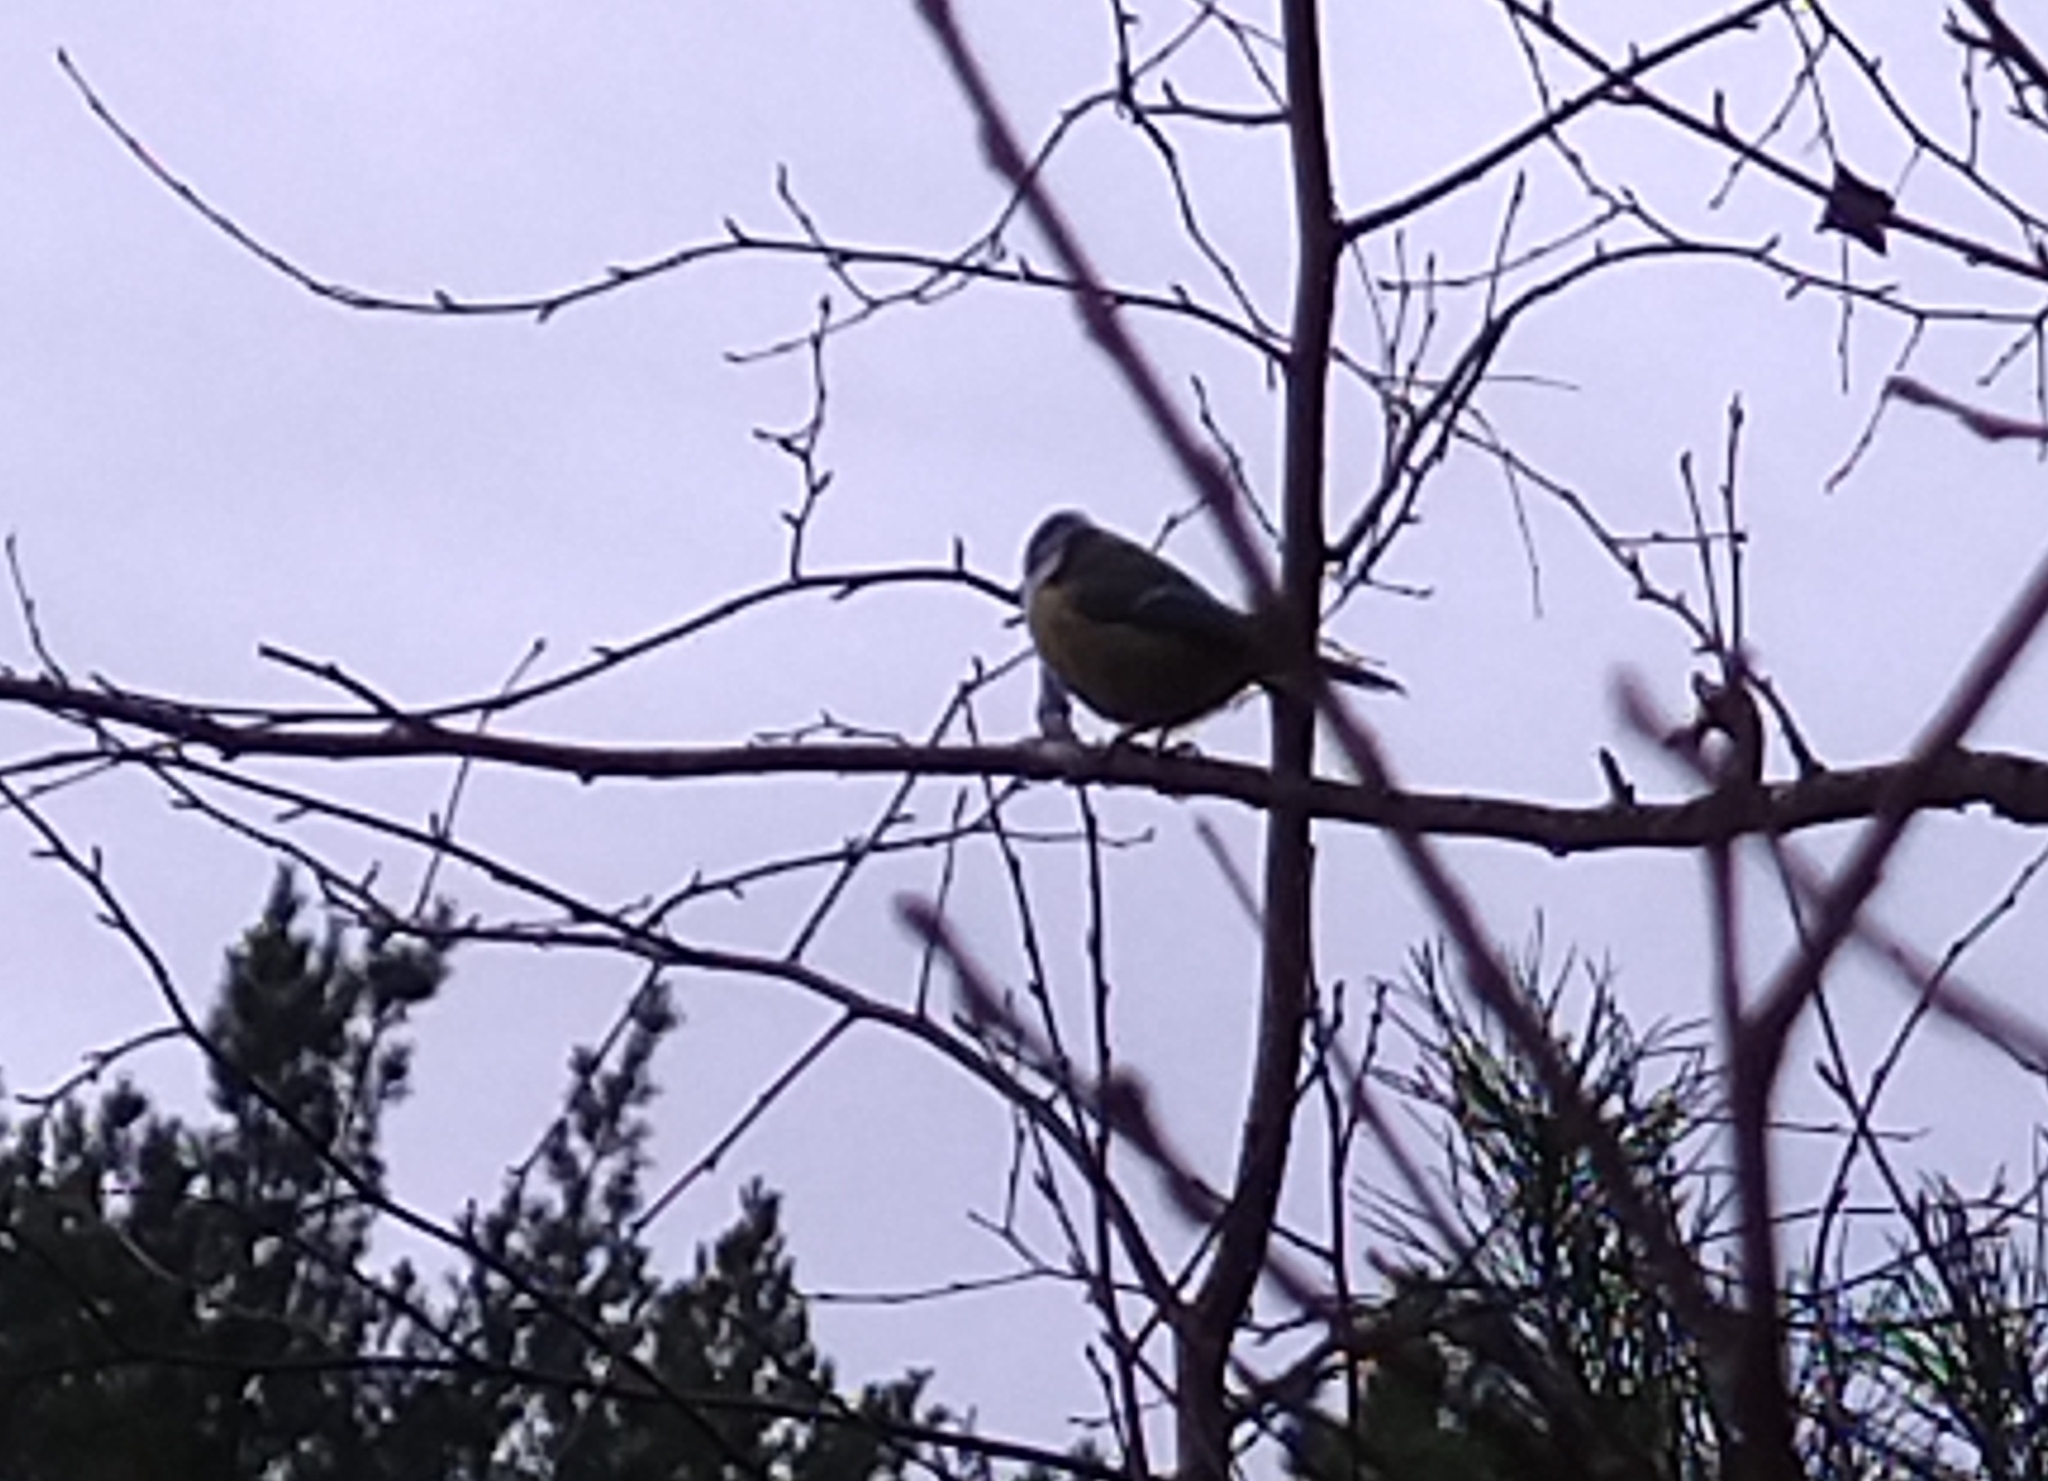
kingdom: Animalia
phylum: Chordata
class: Aves
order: Passeriformes
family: Paridae
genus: Cyanistes
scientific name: Cyanistes caeruleus
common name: Eurasian blue tit
